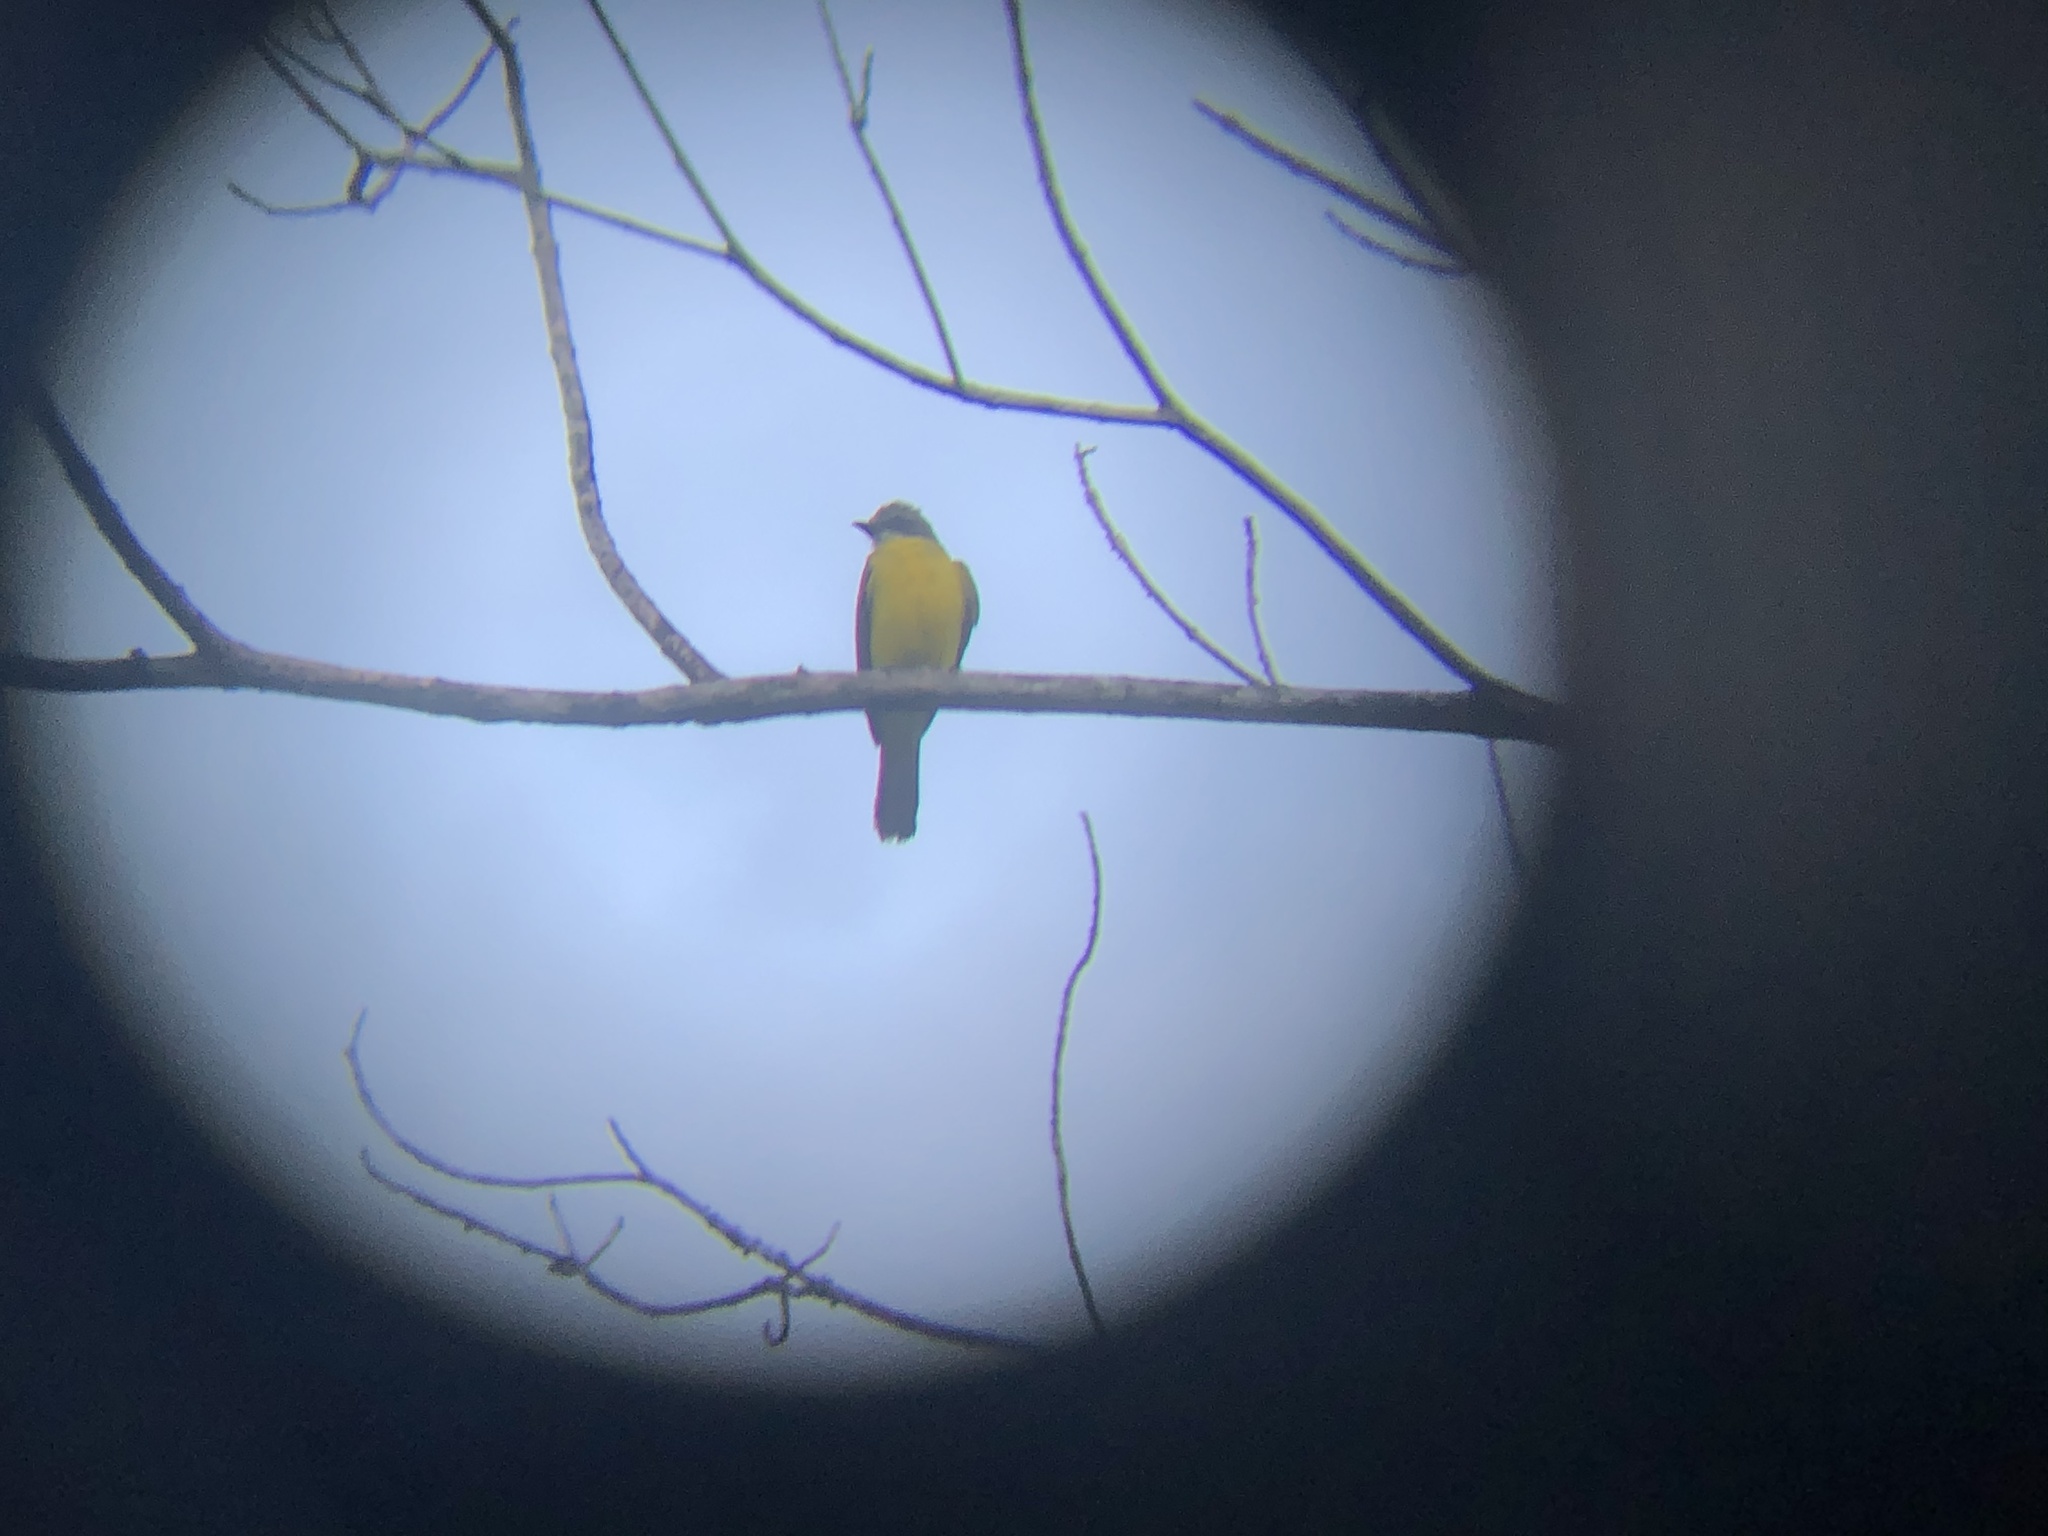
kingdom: Animalia
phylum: Chordata
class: Aves
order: Passeriformes
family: Tyrannidae
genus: Myiozetetes
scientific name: Myiozetetes granadensis
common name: Gray-capped flycatcher
